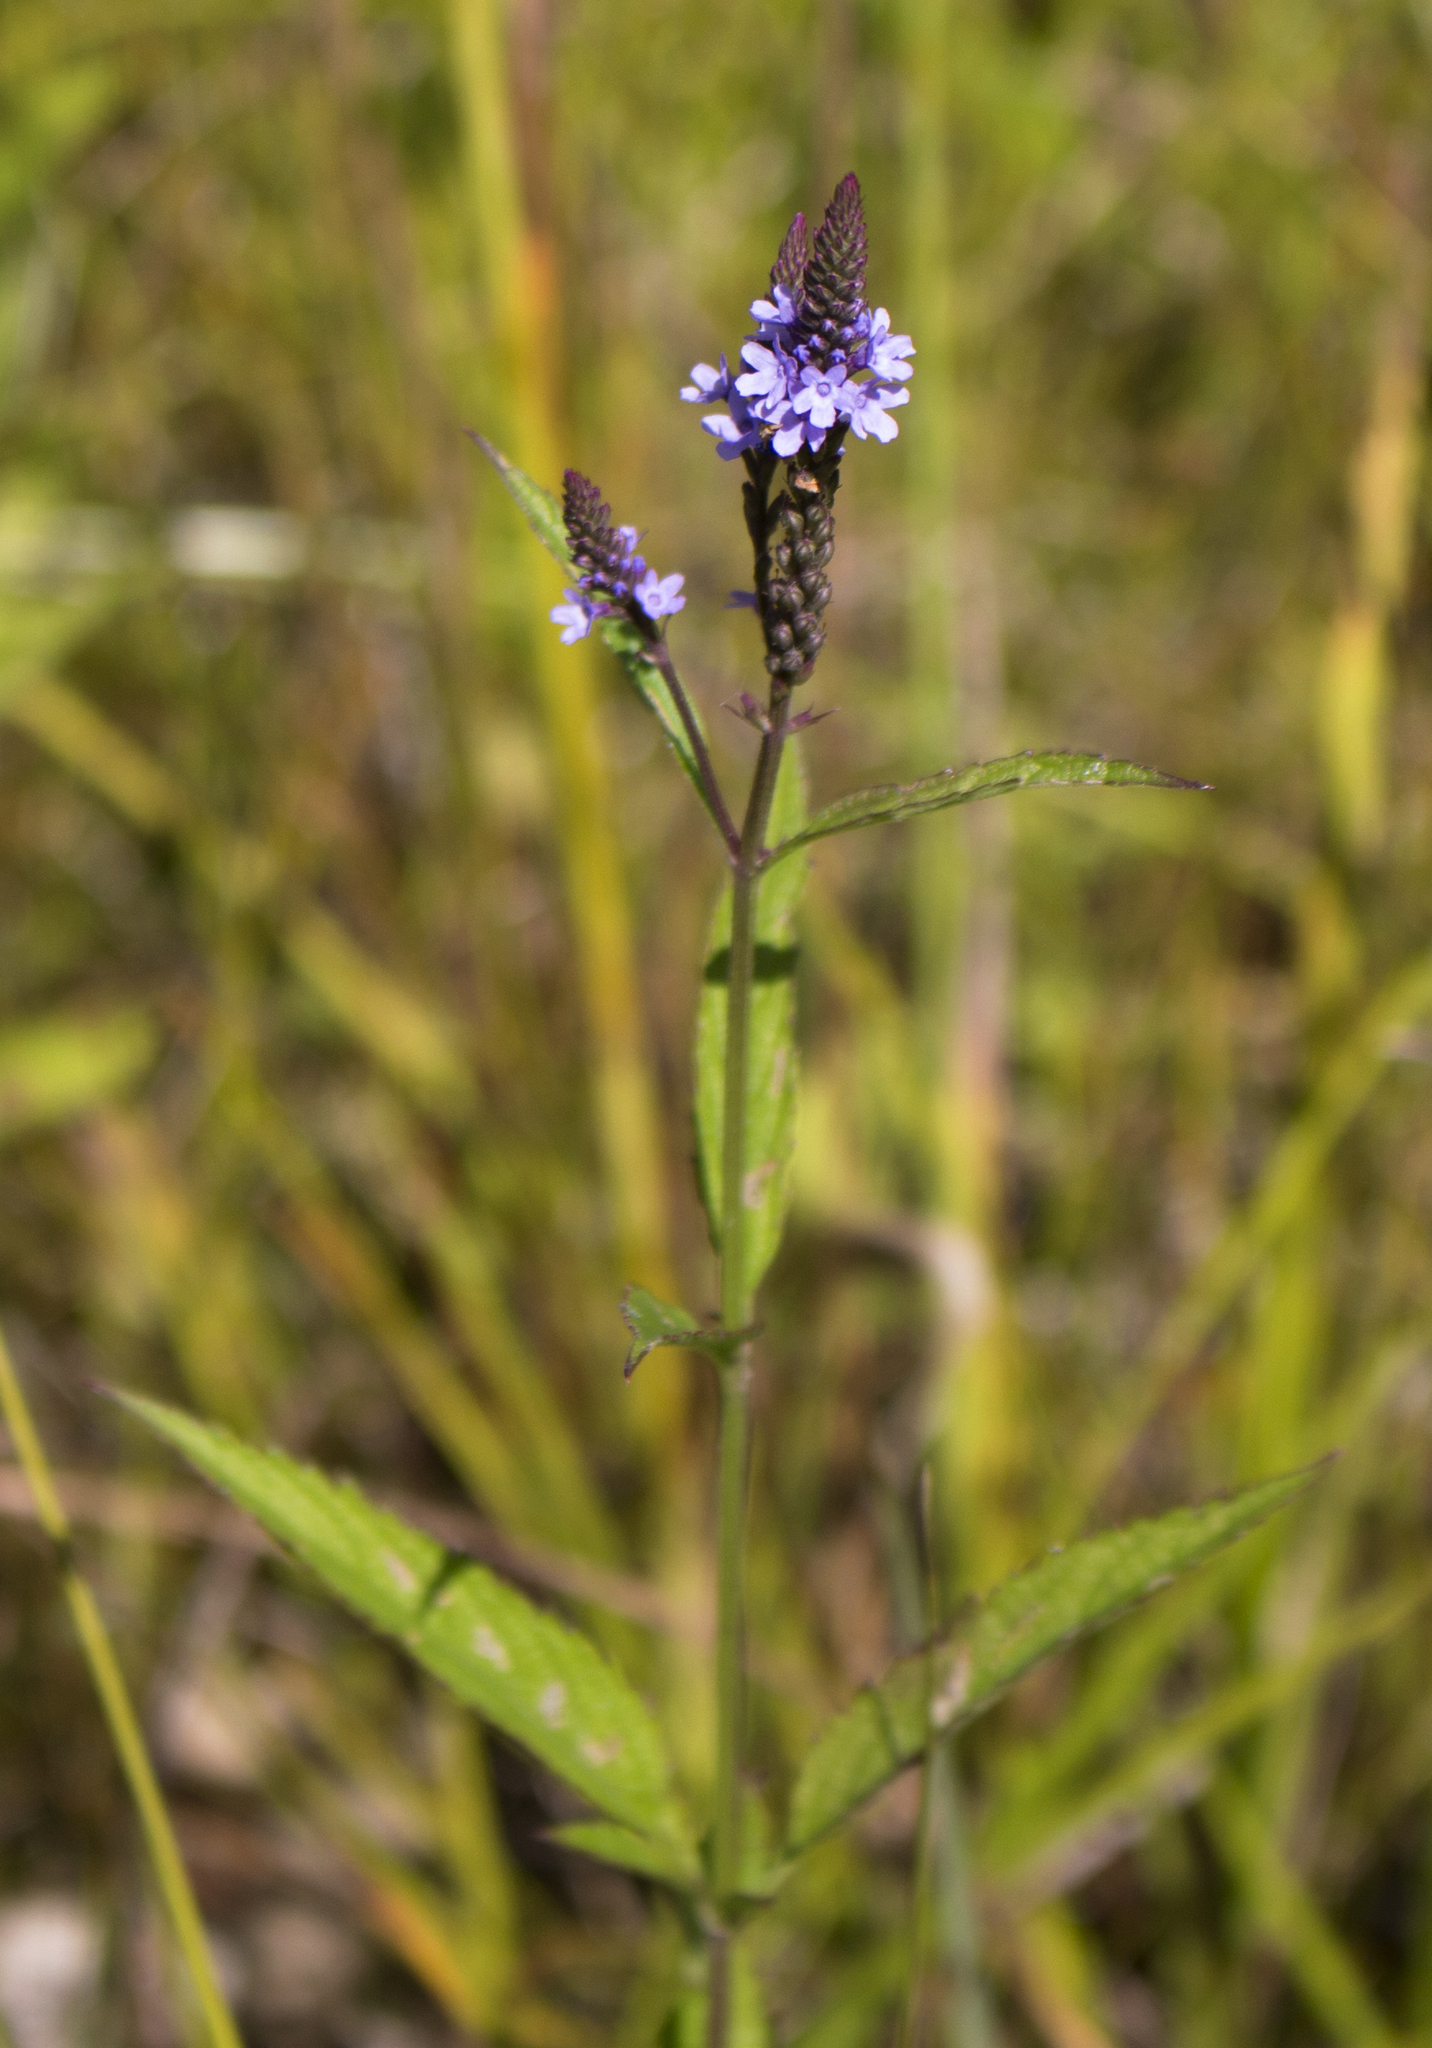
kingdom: Plantae
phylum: Tracheophyta
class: Magnoliopsida
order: Lamiales
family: Verbenaceae
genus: Verbena
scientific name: Verbena hastata
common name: American blue vervain
